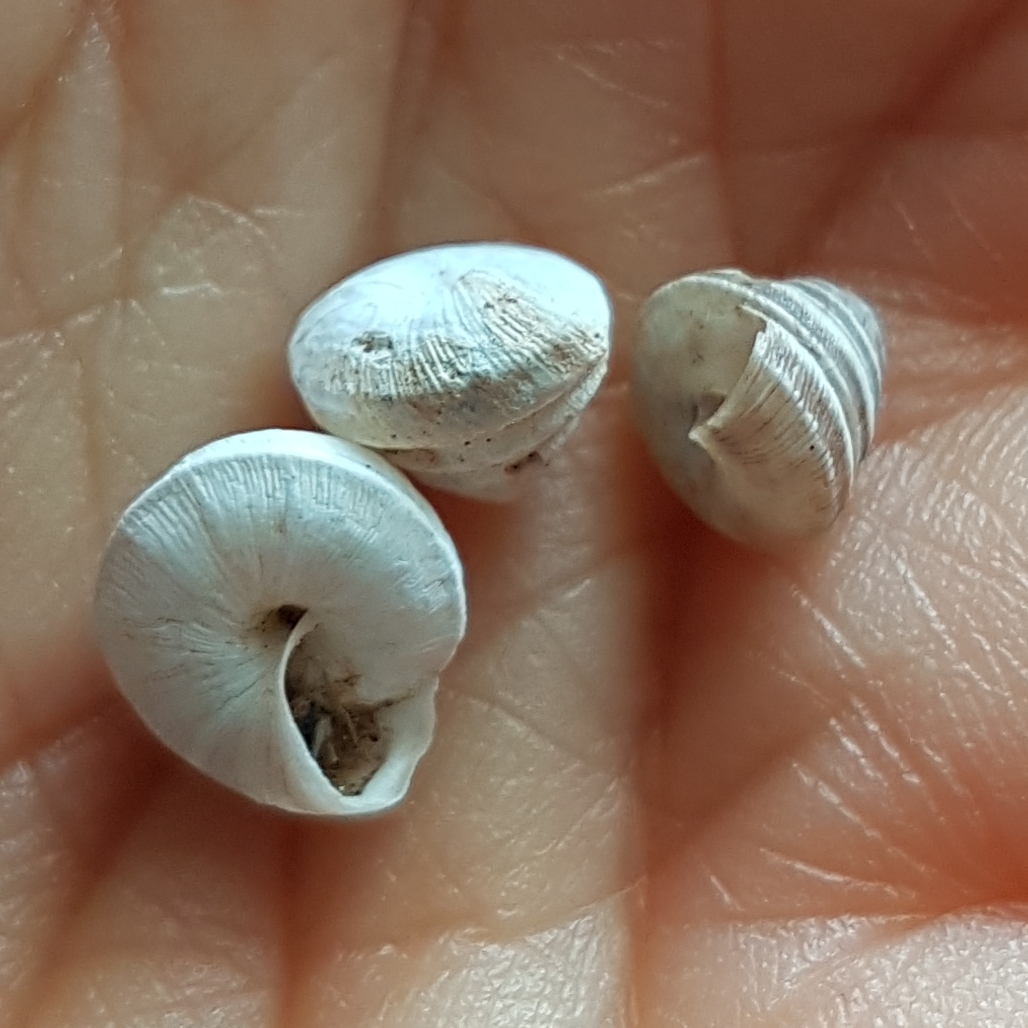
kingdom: Animalia
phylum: Mollusca
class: Gastropoda
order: Stylommatophora
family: Geomitridae
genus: Trochoidea
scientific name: Trochoidea trochoides
